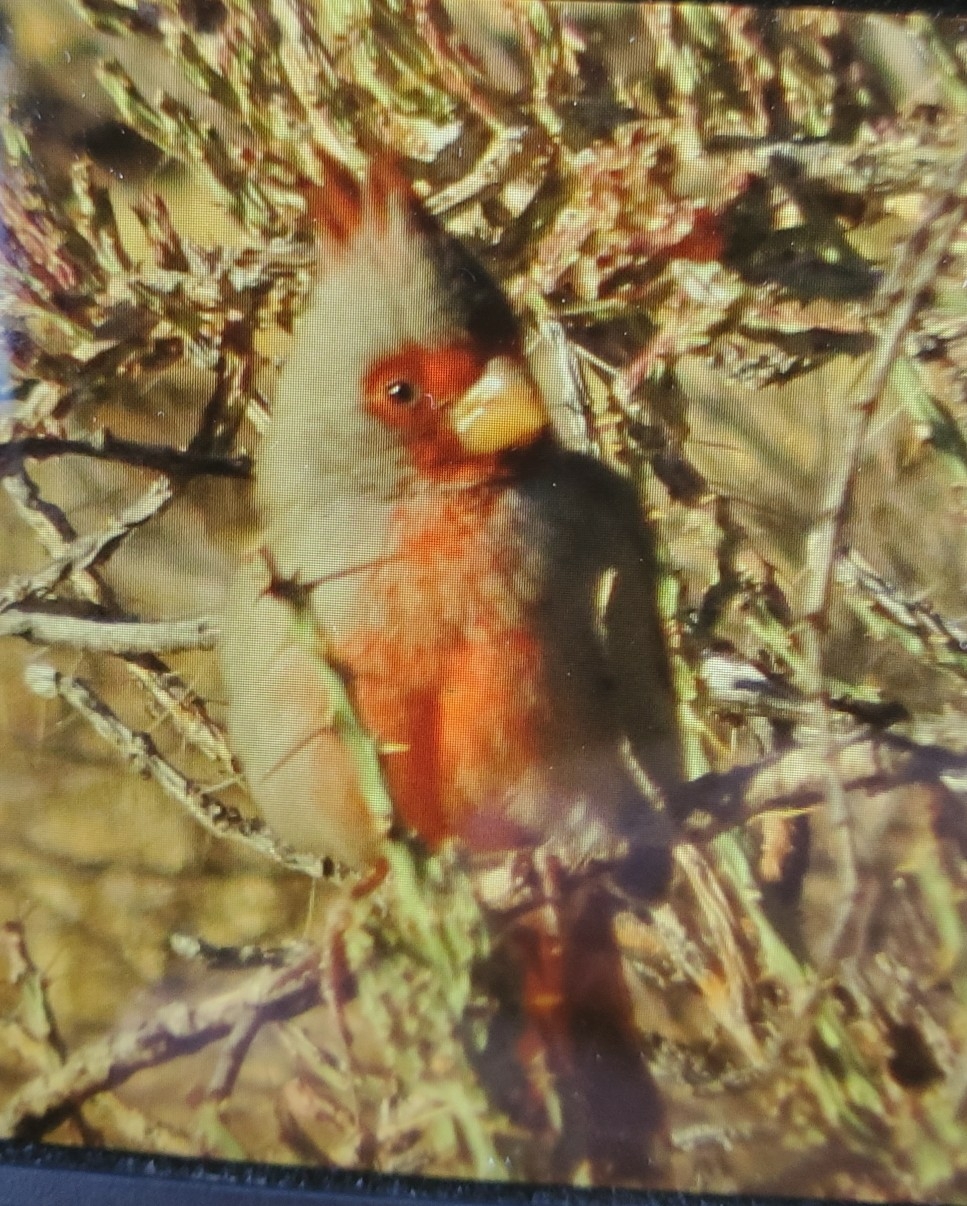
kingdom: Animalia
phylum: Chordata
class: Aves
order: Passeriformes
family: Cardinalidae
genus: Cardinalis
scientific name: Cardinalis sinuatus
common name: Pyrrhuloxia
